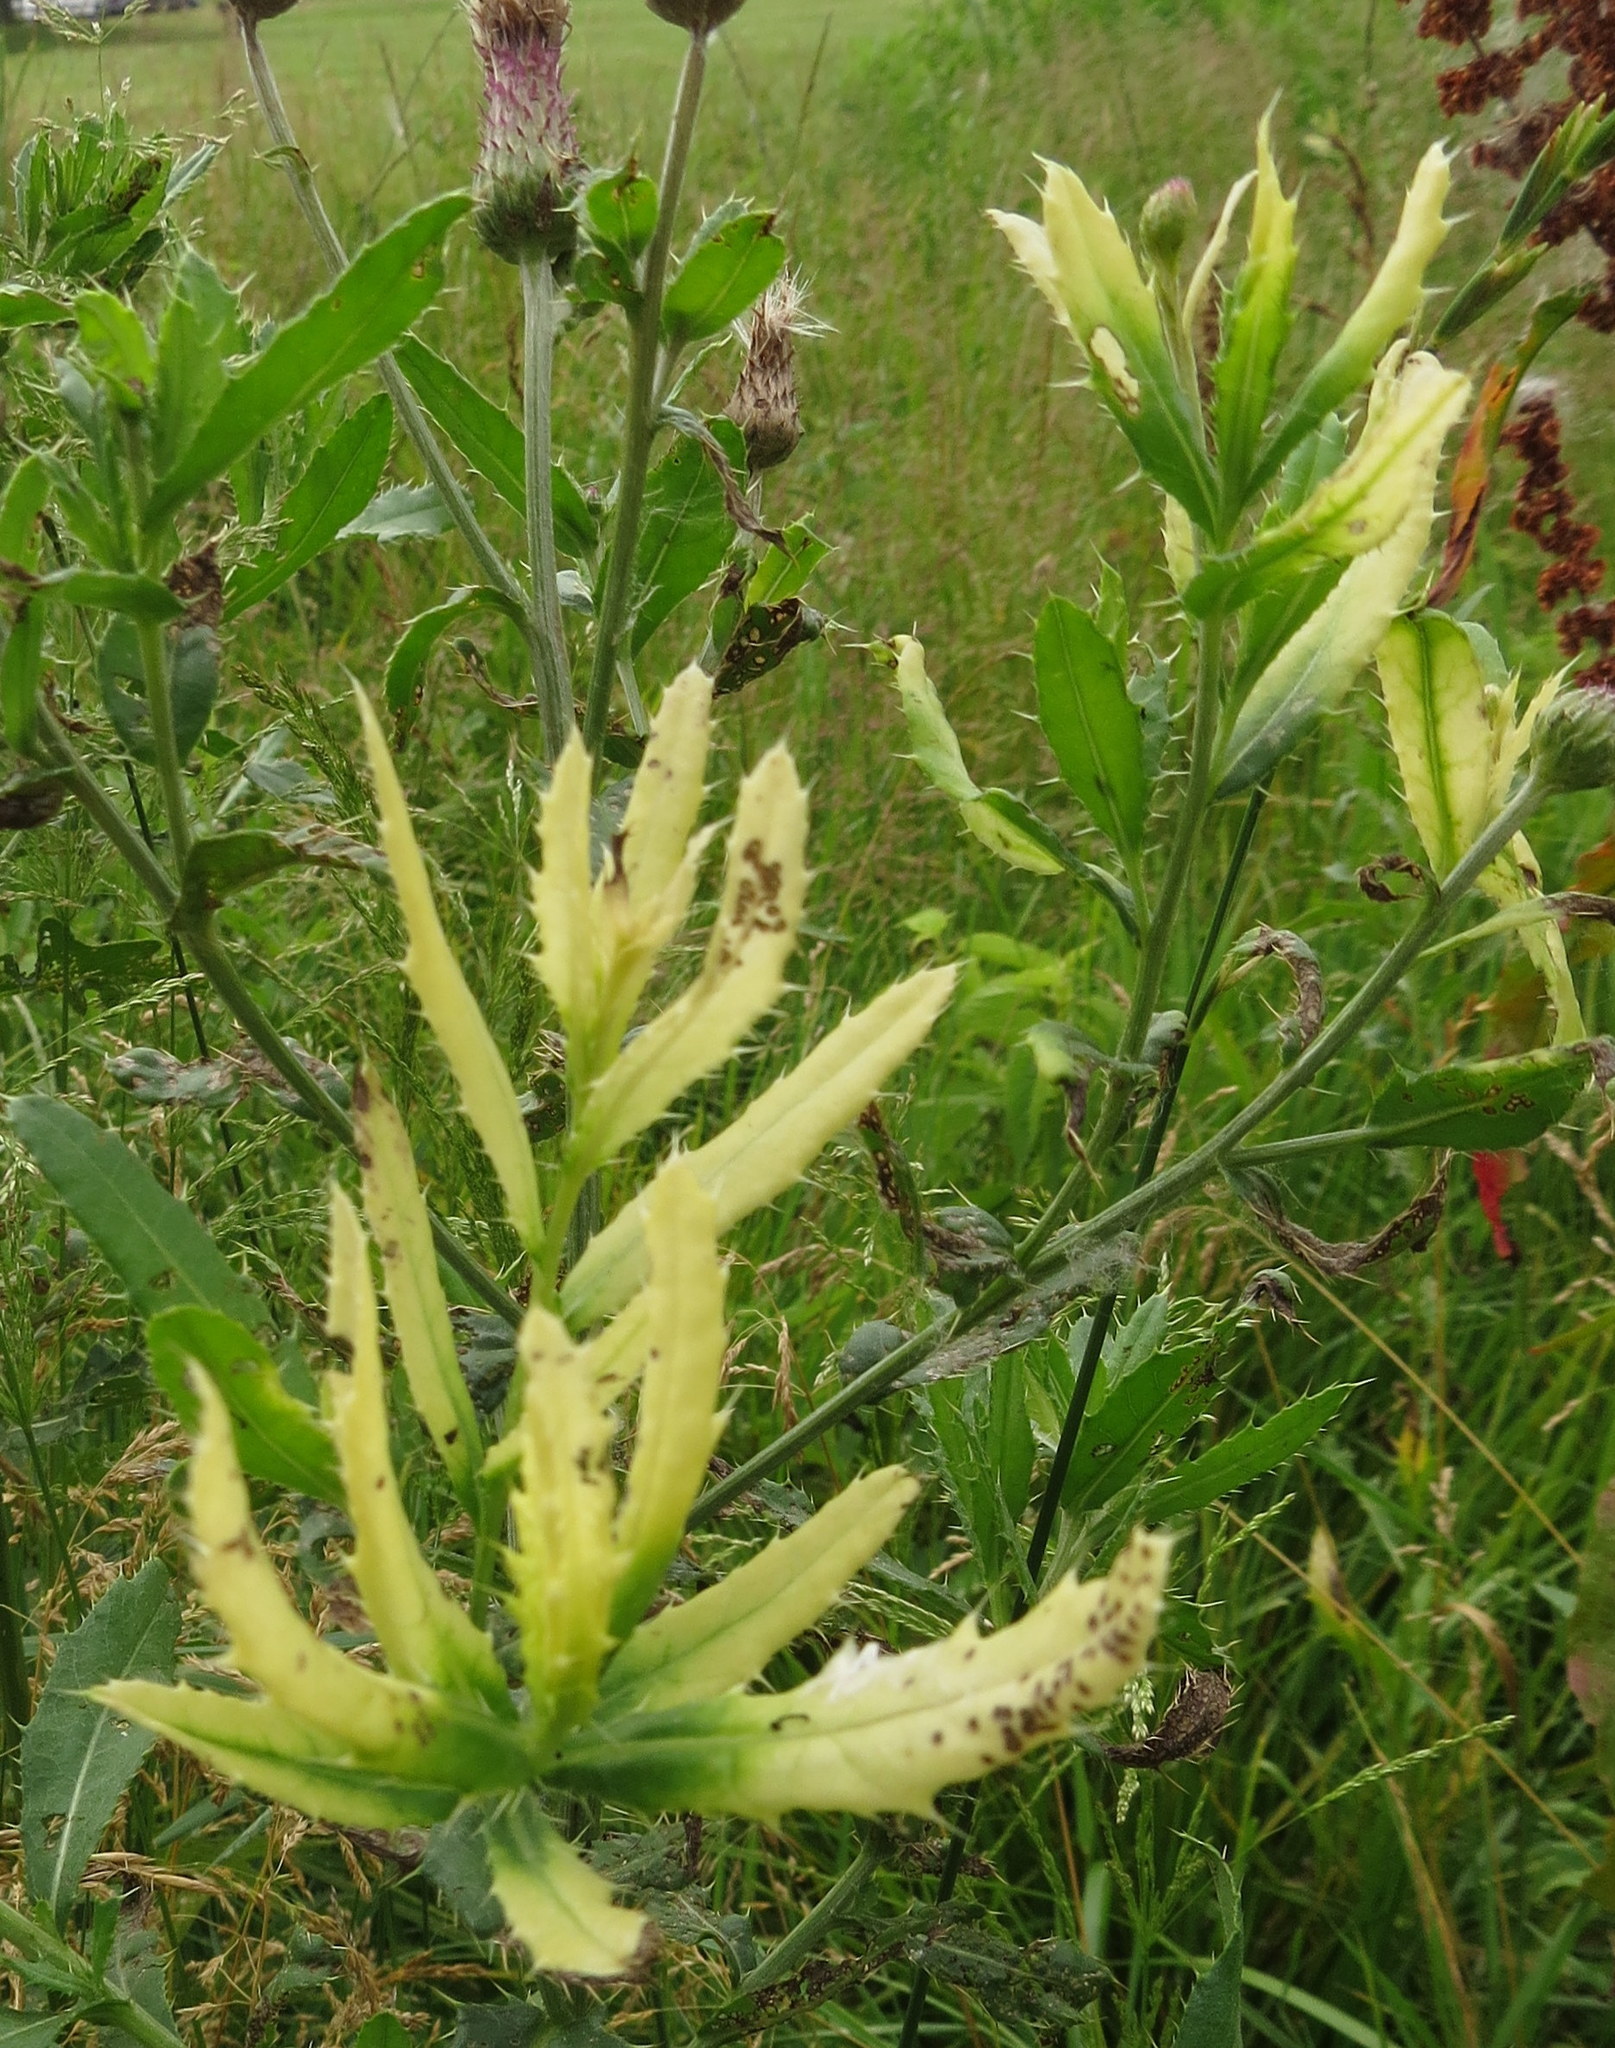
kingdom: Bacteria
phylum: Proteobacteria
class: Gammaproteobacteria
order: Pseudomonadales
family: Pseudomonadaceae
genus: Pseudomonas
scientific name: Pseudomonas syringae
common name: Bacterial speck
